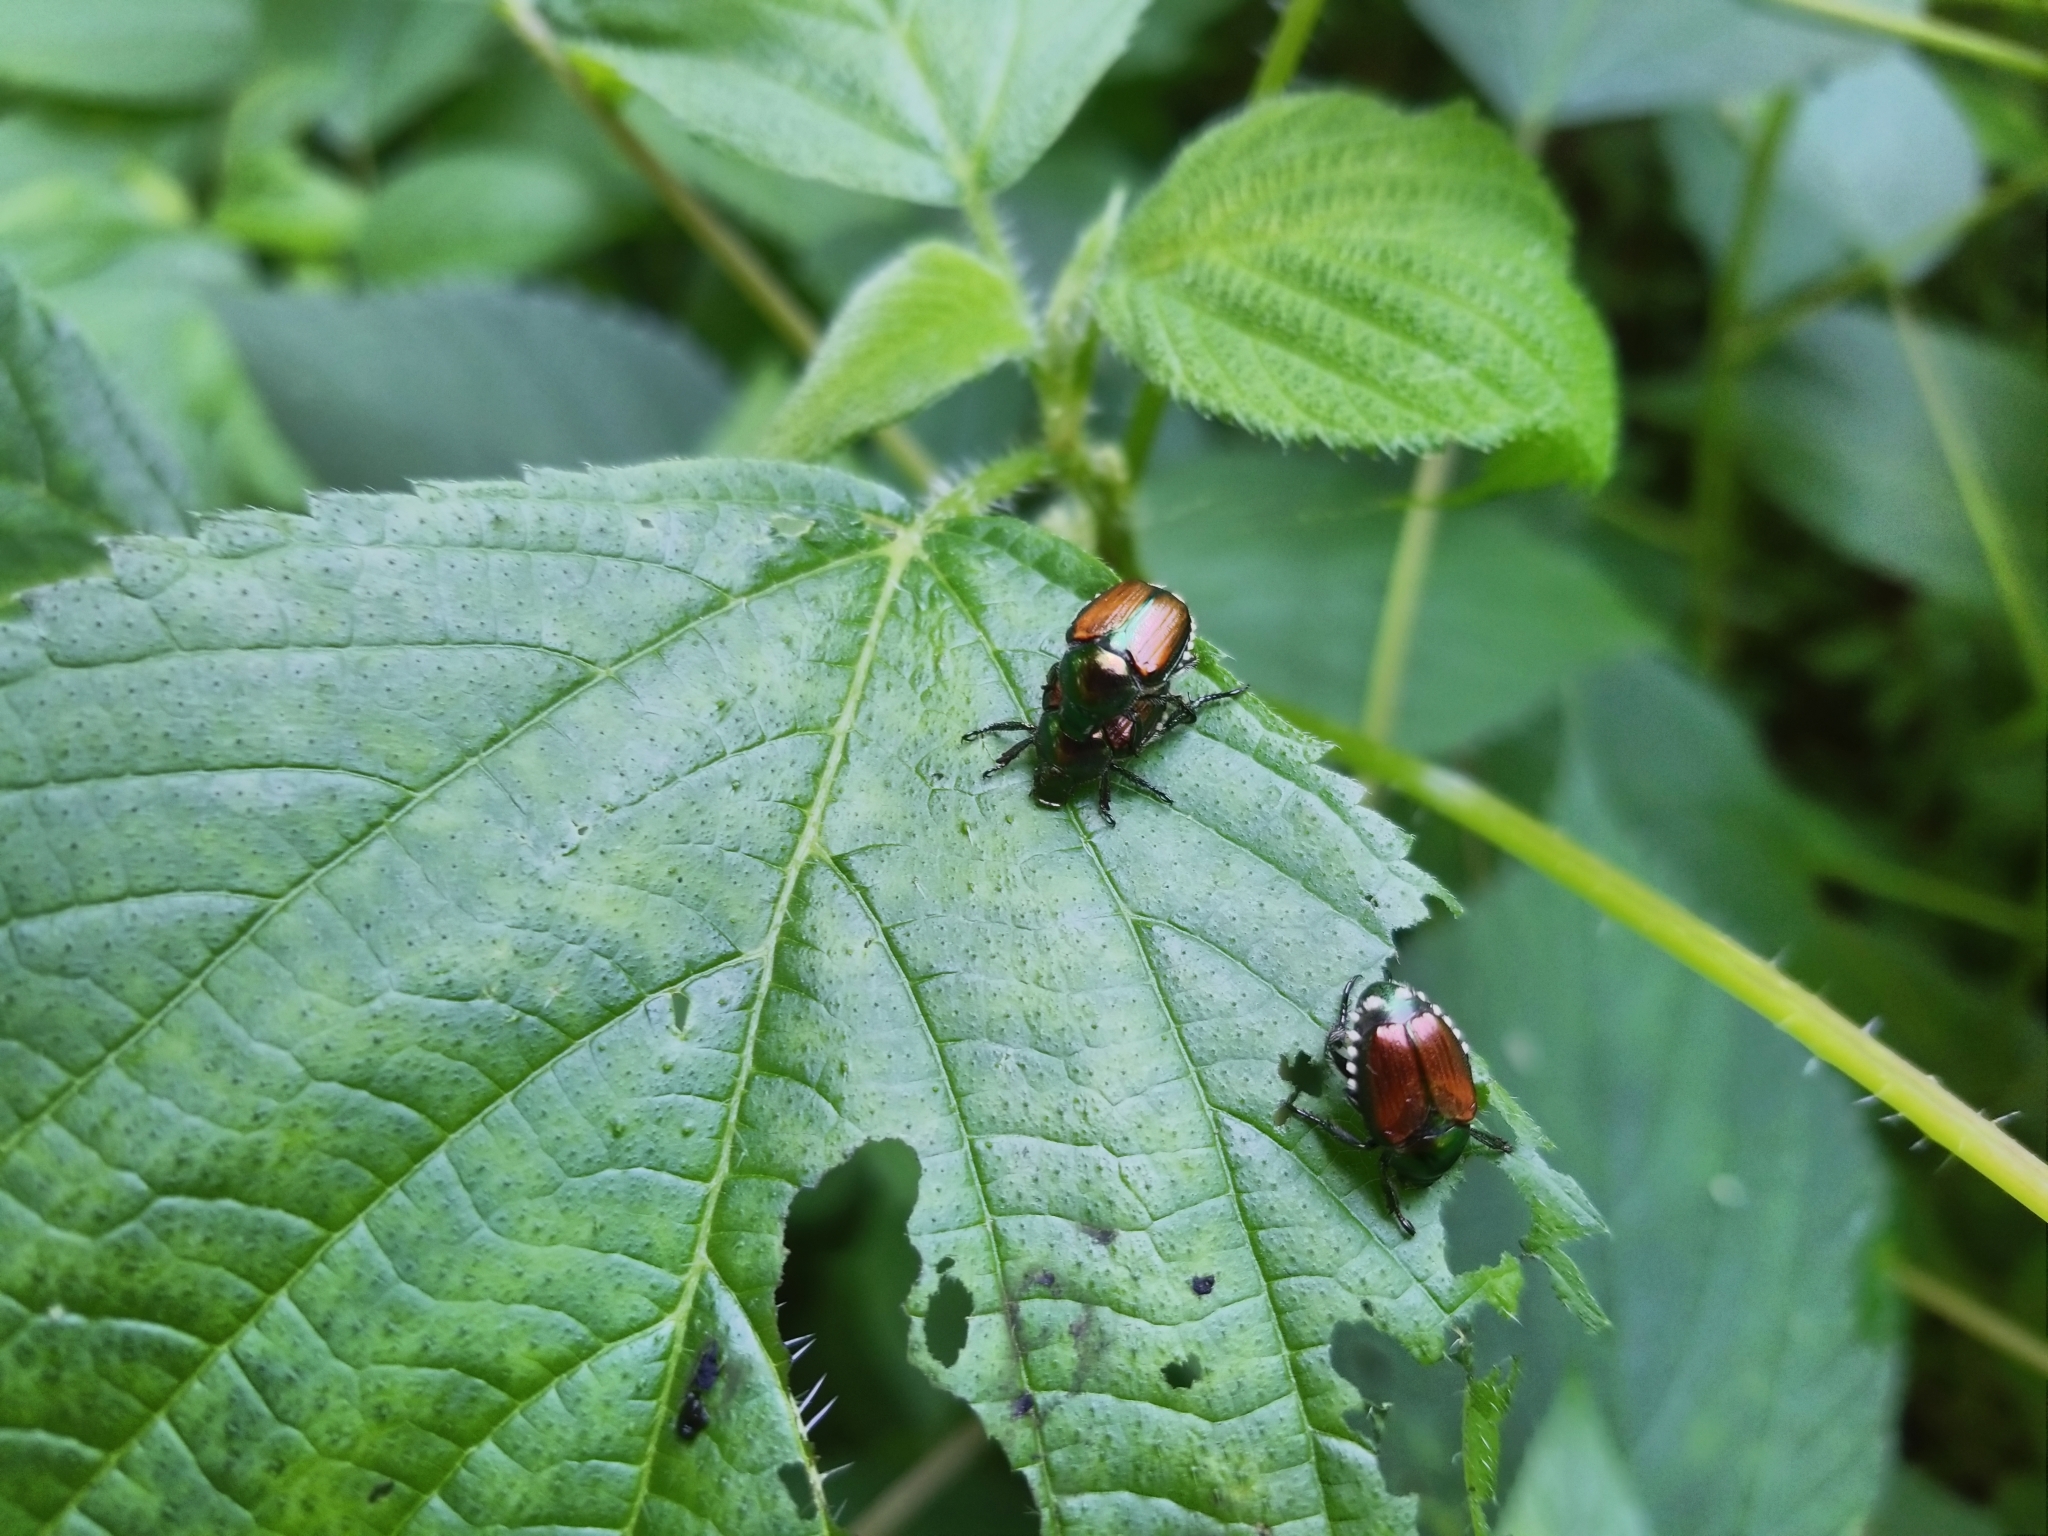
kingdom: Animalia
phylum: Arthropoda
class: Insecta
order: Coleoptera
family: Scarabaeidae
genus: Popillia
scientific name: Popillia japonica
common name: Japanese beetle
